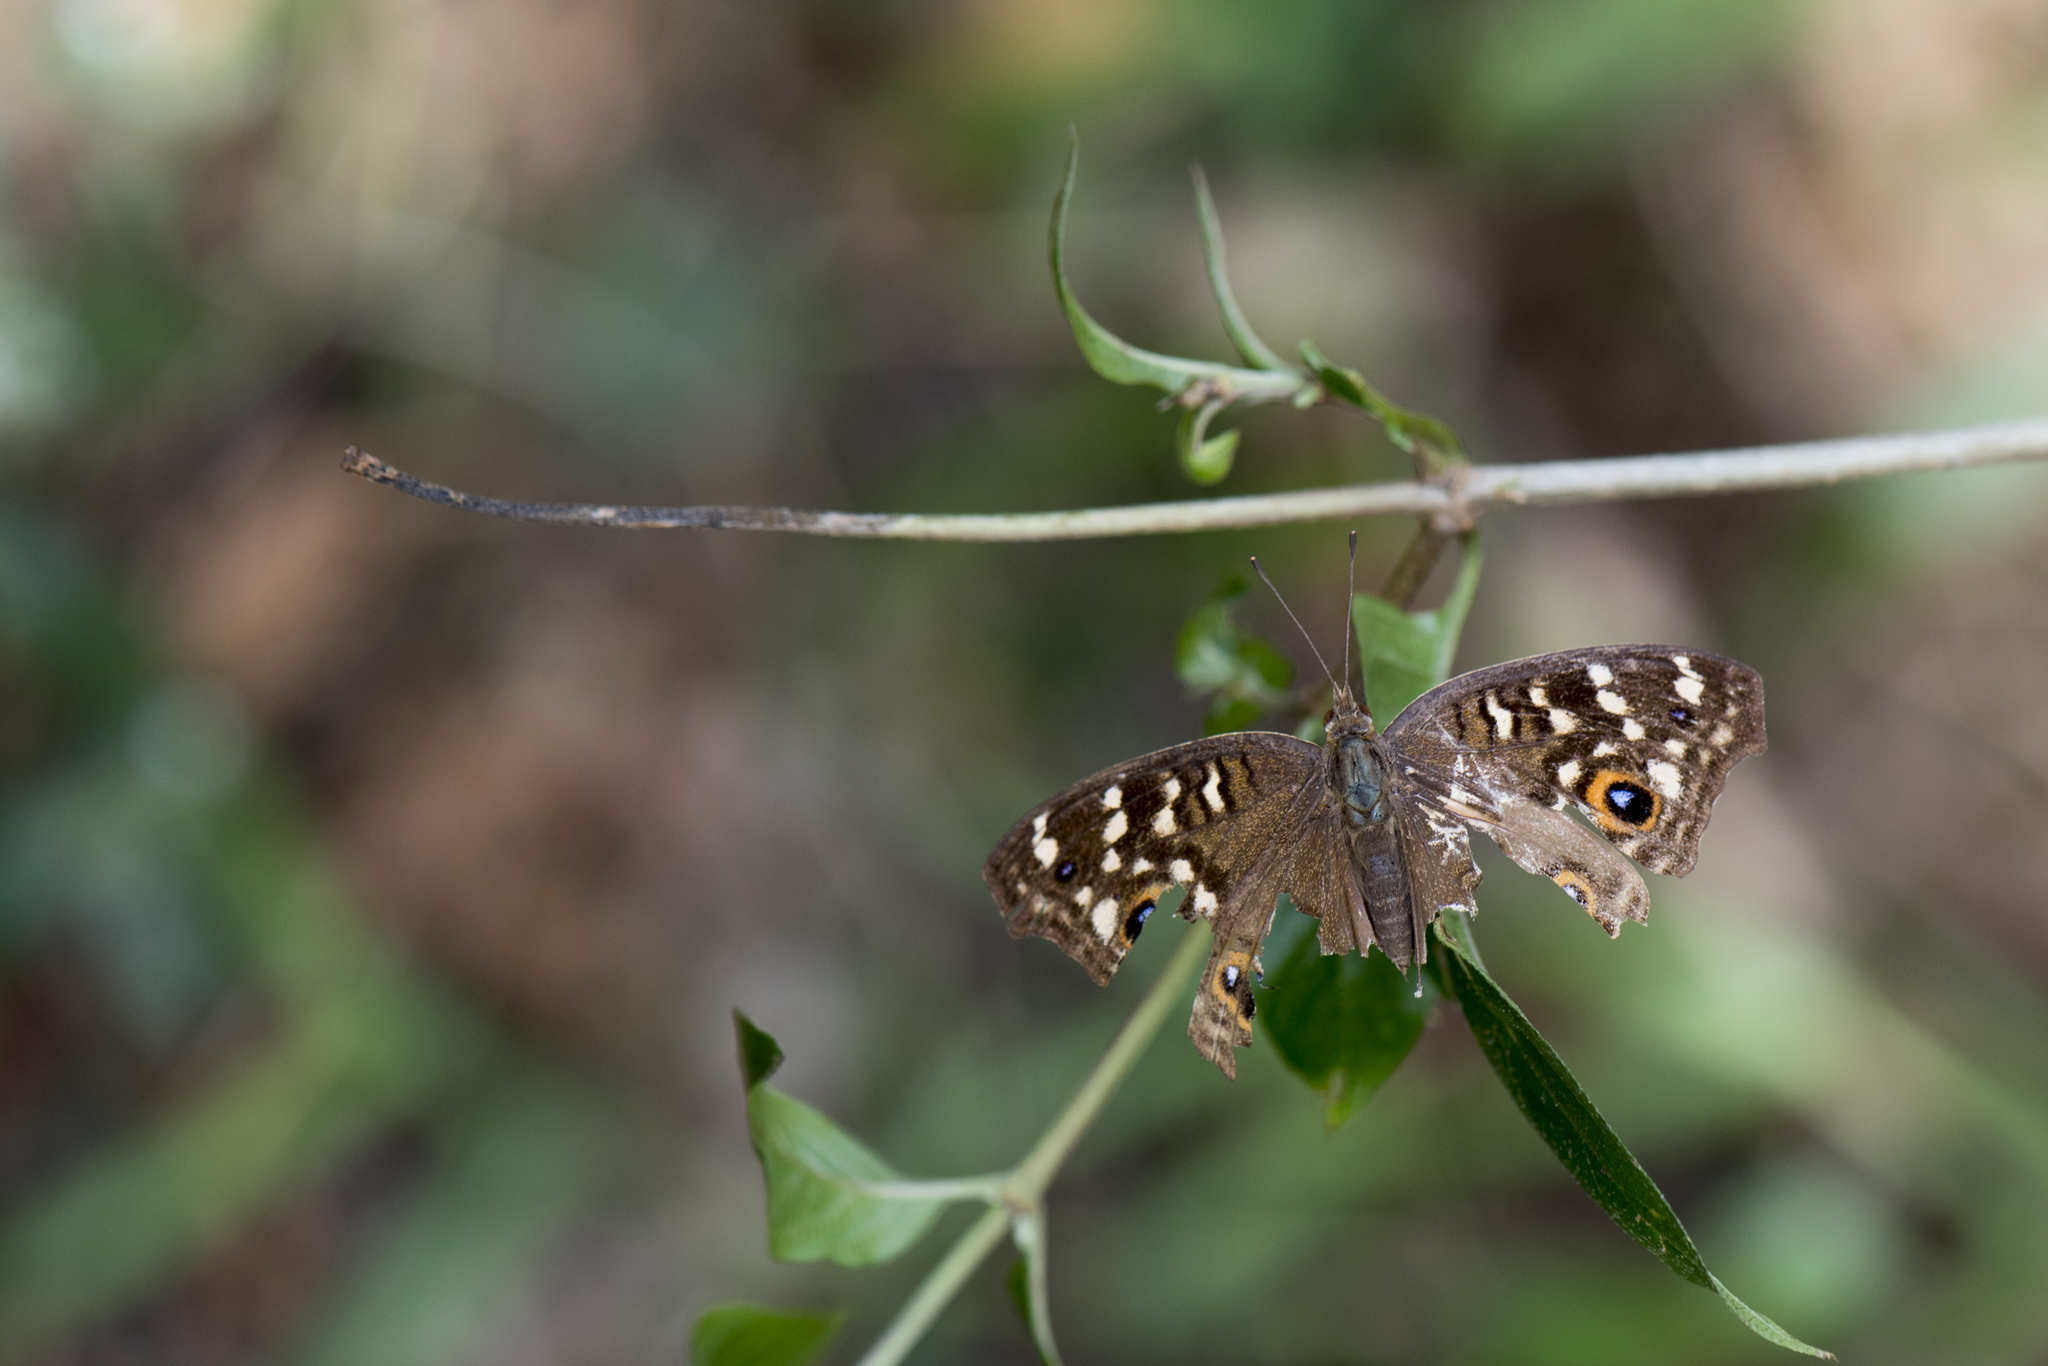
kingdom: Animalia
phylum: Arthropoda
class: Insecta
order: Lepidoptera
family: Nymphalidae
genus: Junonia
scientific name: Junonia lemonias
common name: Lemon pansy
